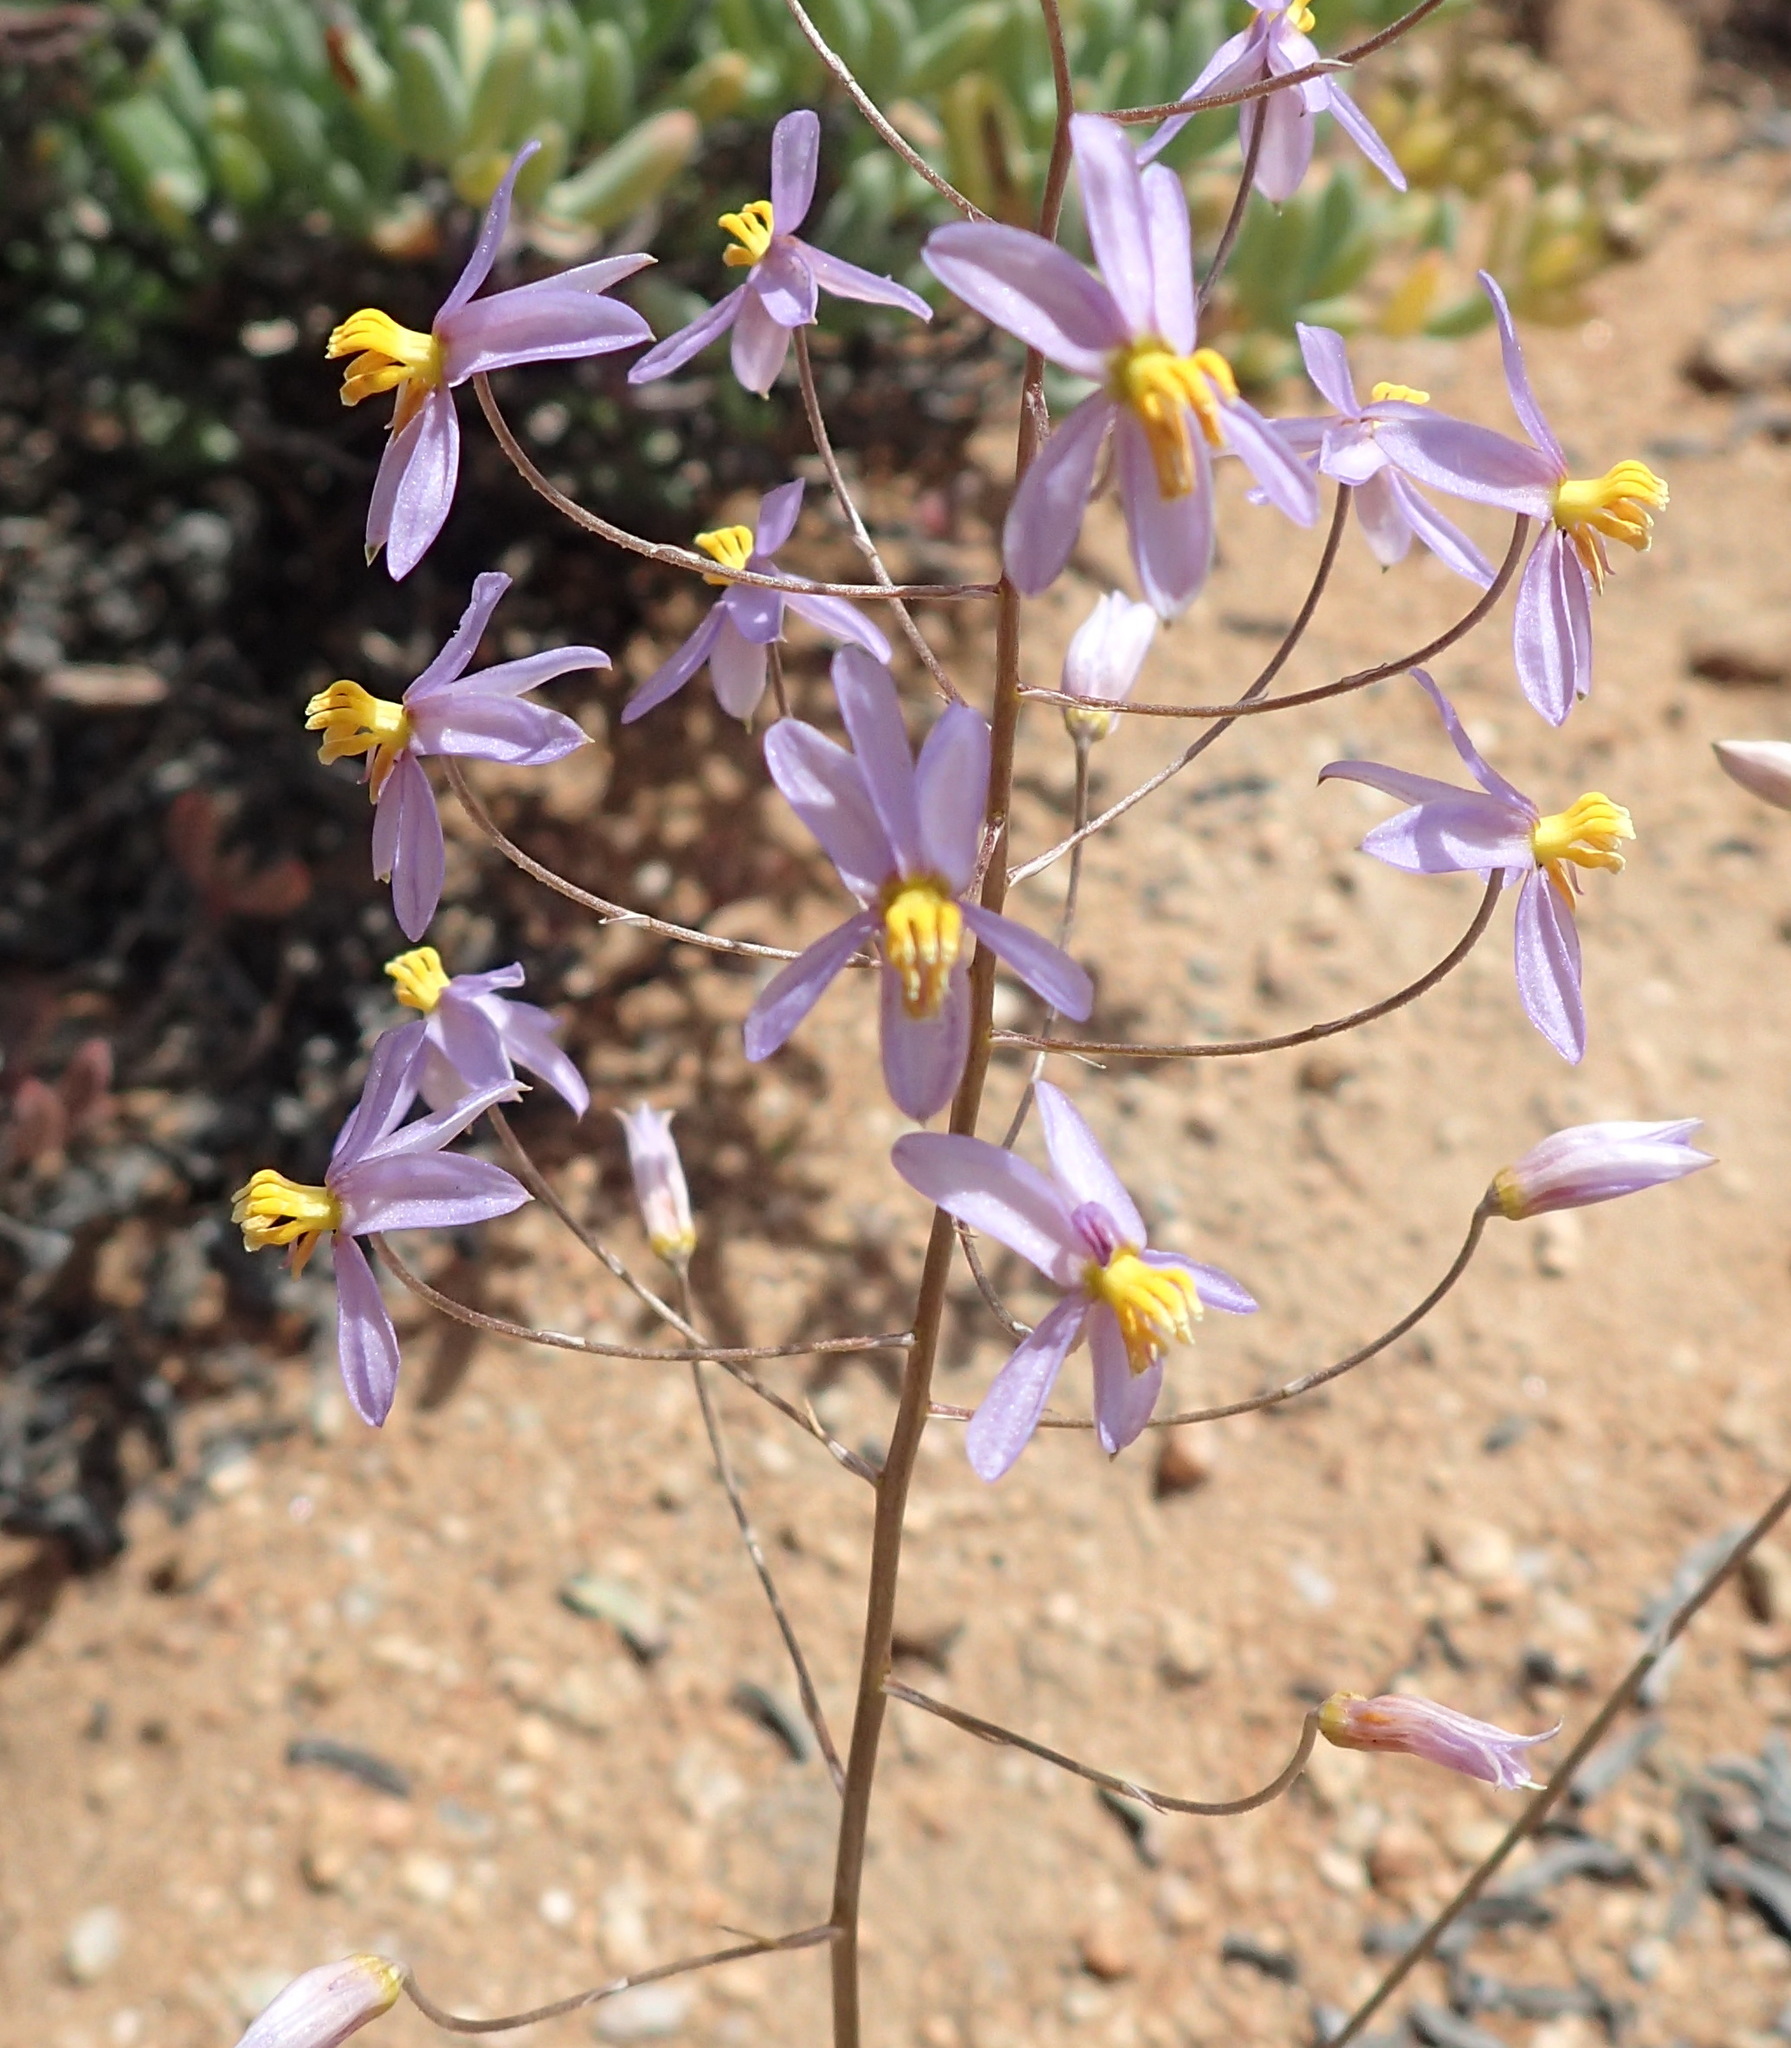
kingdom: Plantae
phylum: Tracheophyta
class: Liliopsida
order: Asparagales
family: Tecophilaeaceae
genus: Cyanella
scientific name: Cyanella hyacinthoides
